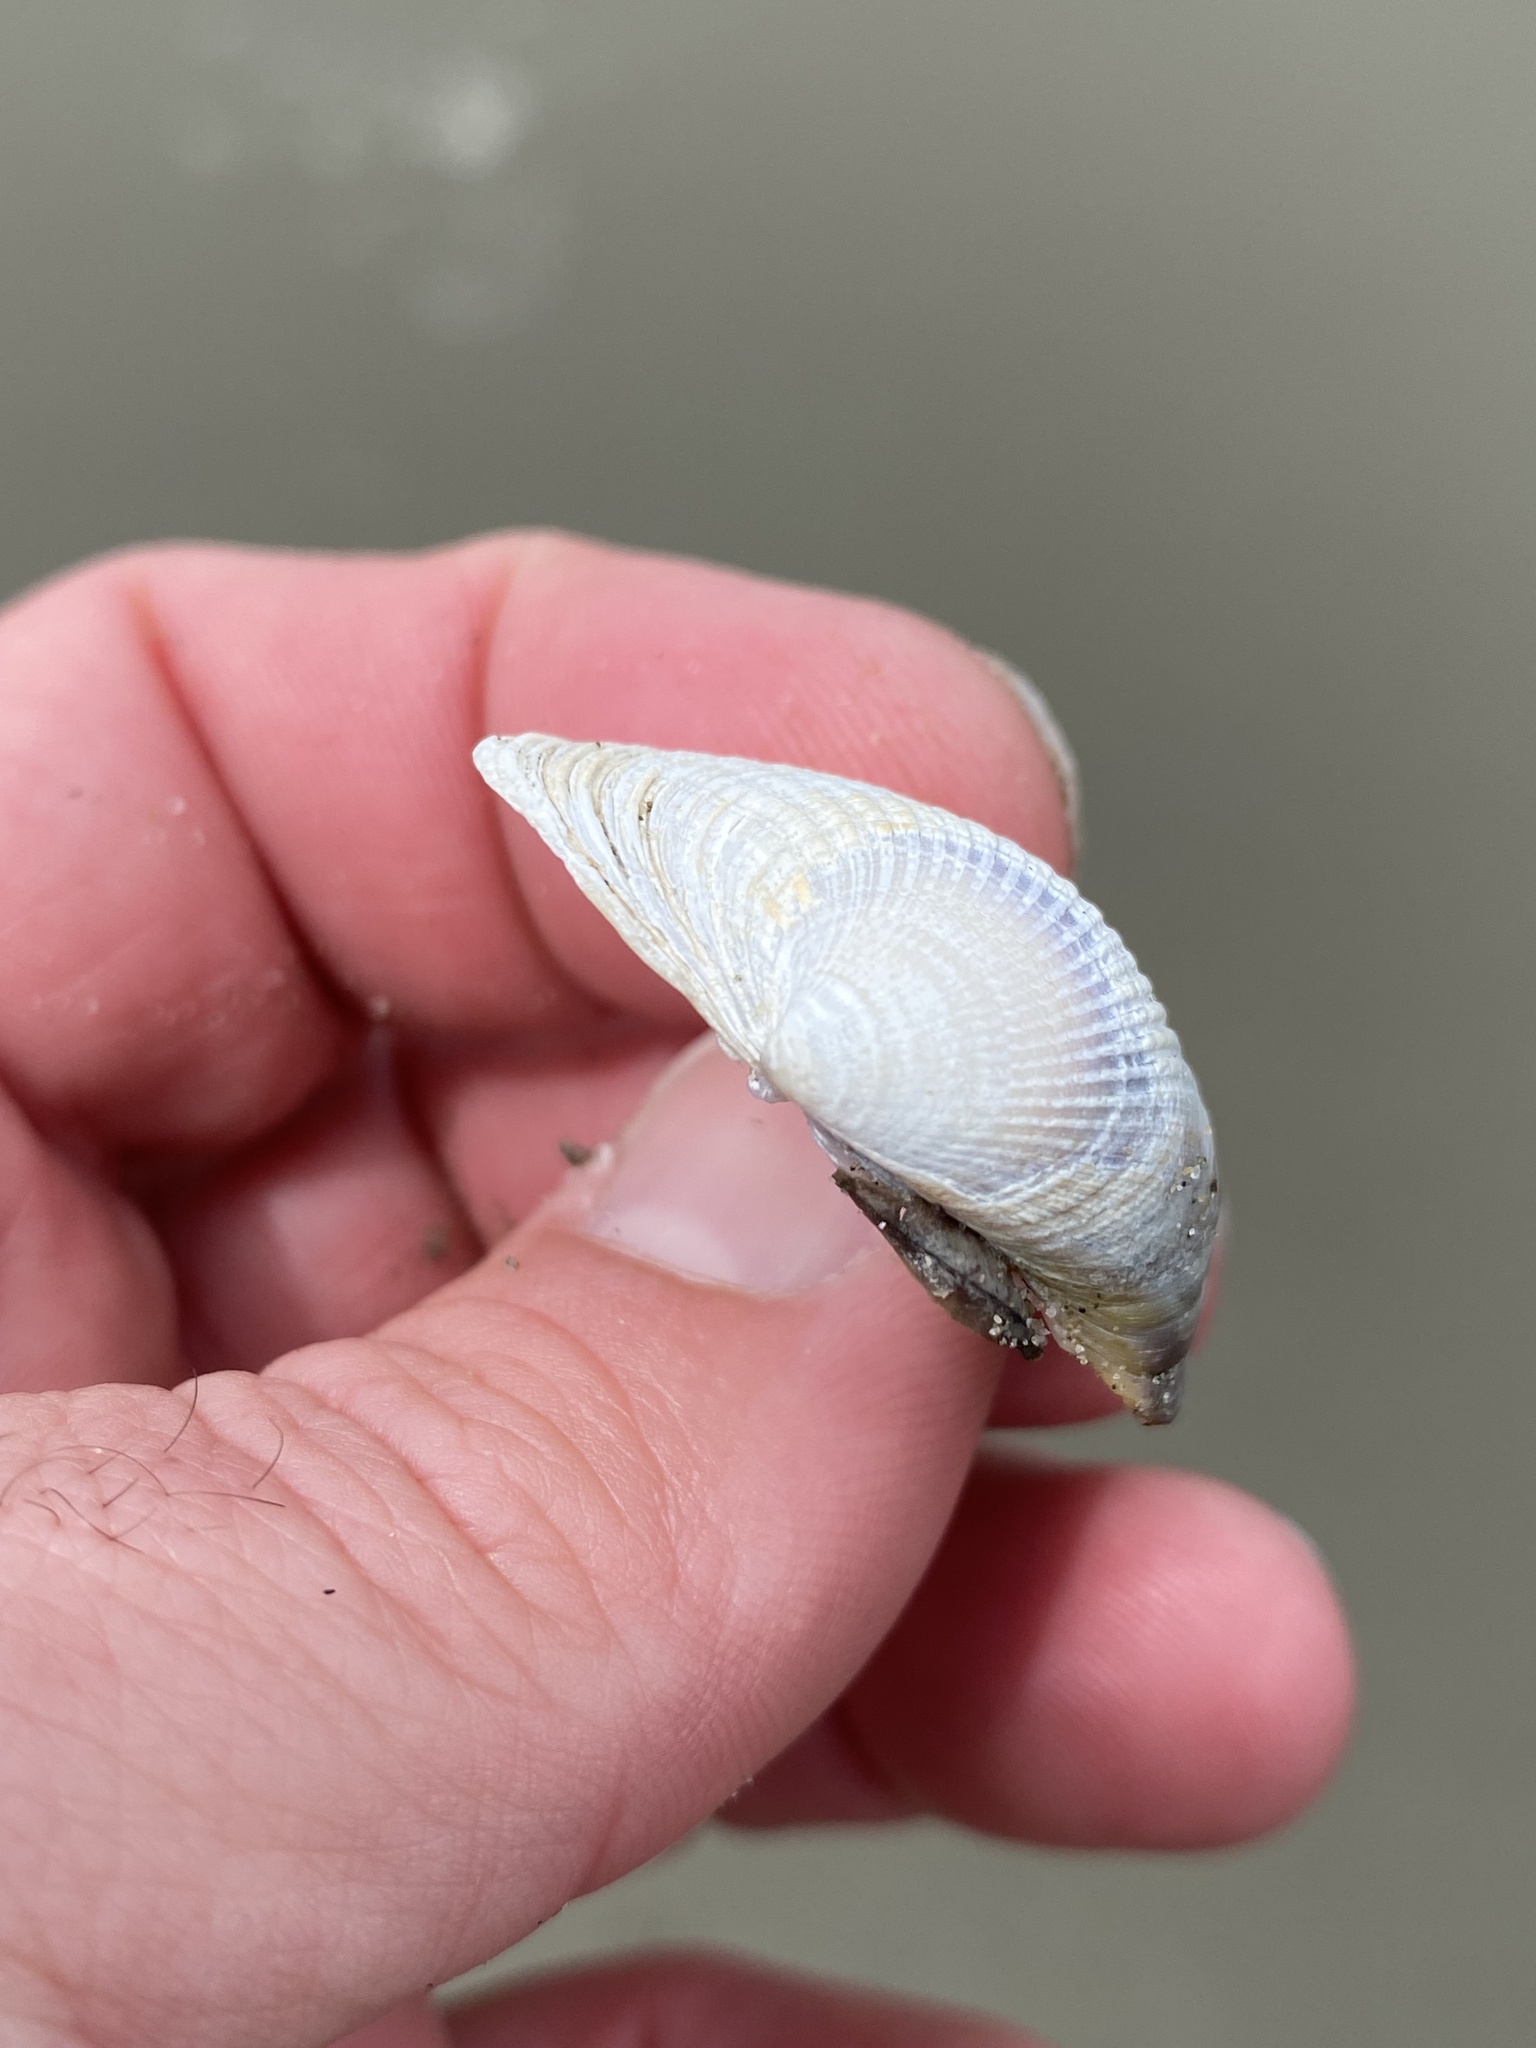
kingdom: Animalia
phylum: Mollusca
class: Bivalvia
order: Venerida
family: Veneridae
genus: Austrovenus
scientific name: Austrovenus stutchburyi
